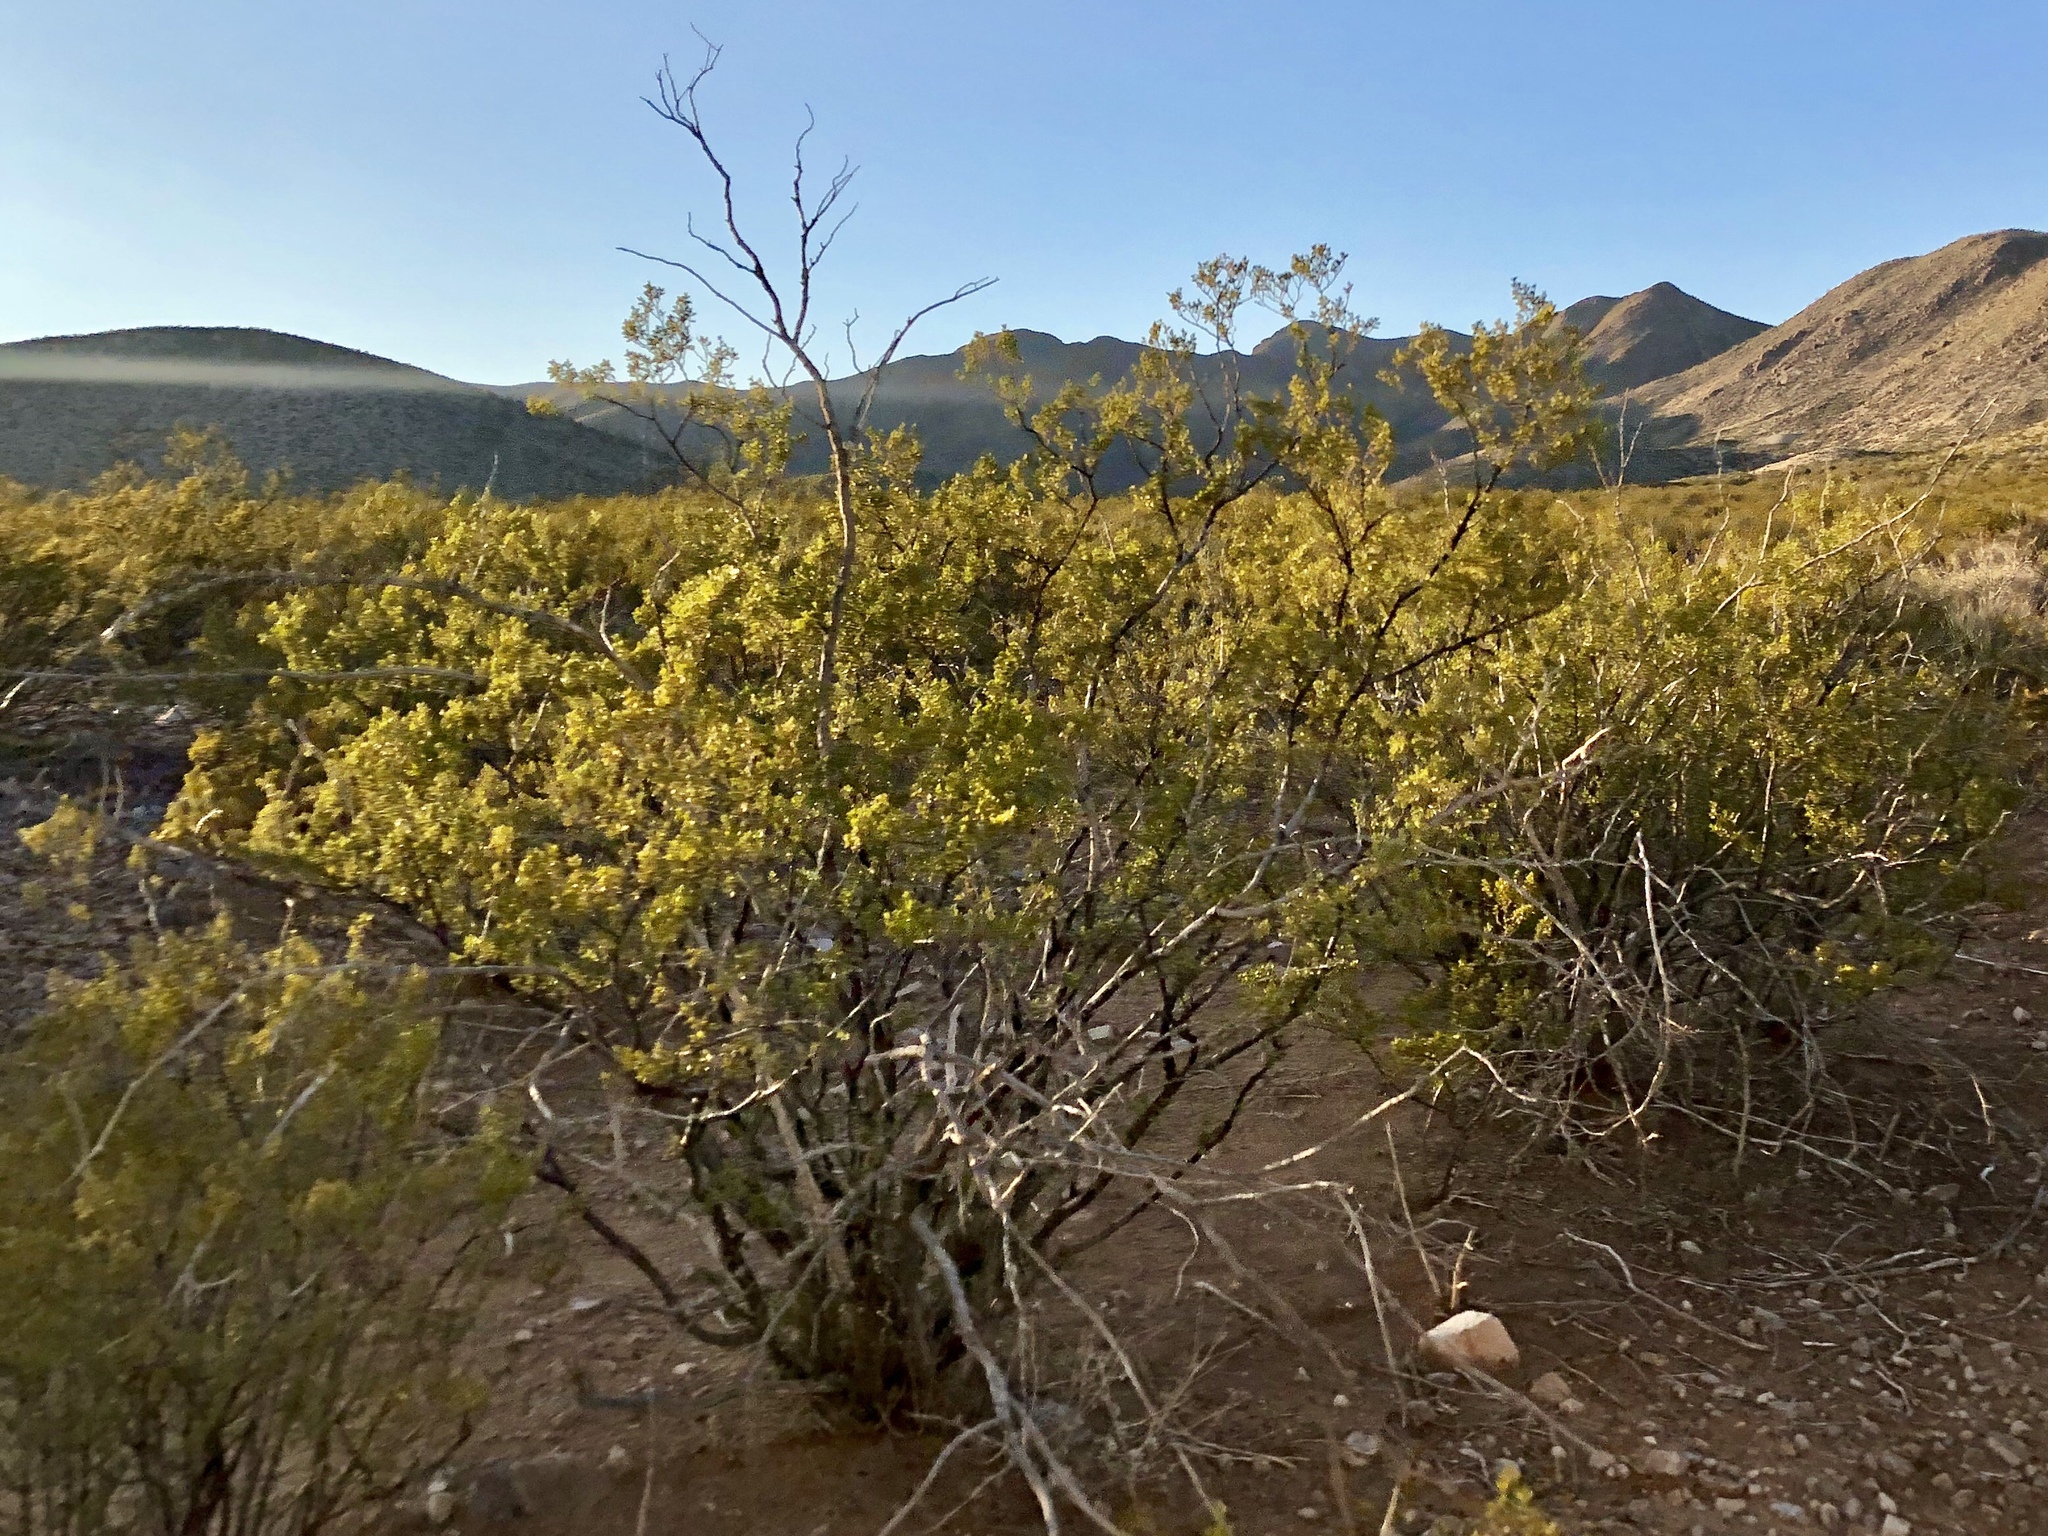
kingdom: Plantae
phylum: Tracheophyta
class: Magnoliopsida
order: Zygophyllales
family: Zygophyllaceae
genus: Larrea
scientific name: Larrea tridentata
